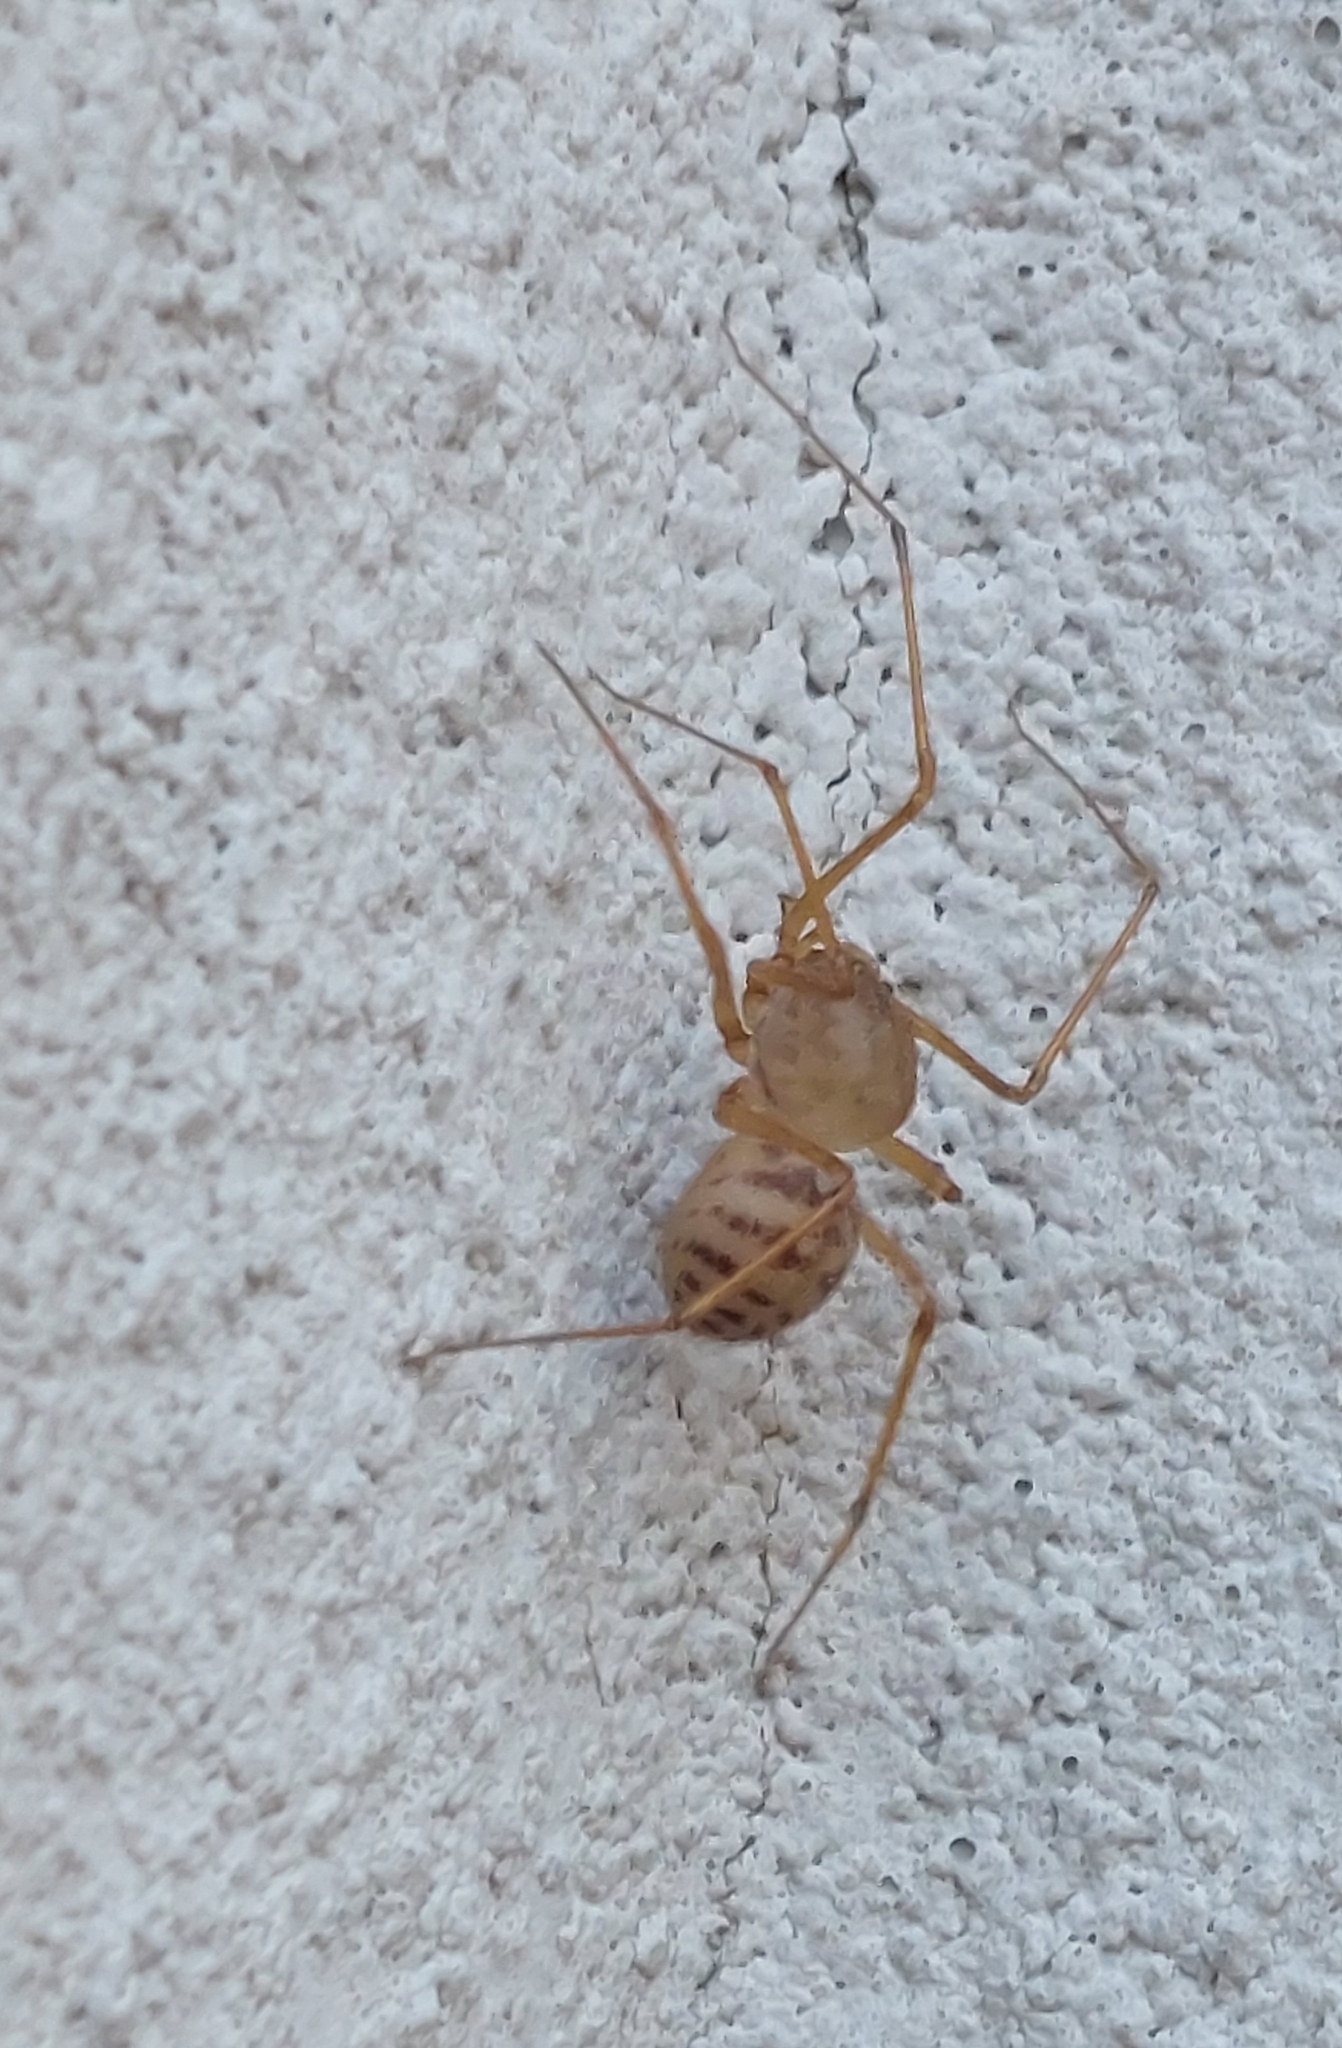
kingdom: Animalia
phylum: Arthropoda
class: Arachnida
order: Araneae
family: Scytodidae
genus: Scytodes
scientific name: Scytodes univittata
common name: Spitting spider
